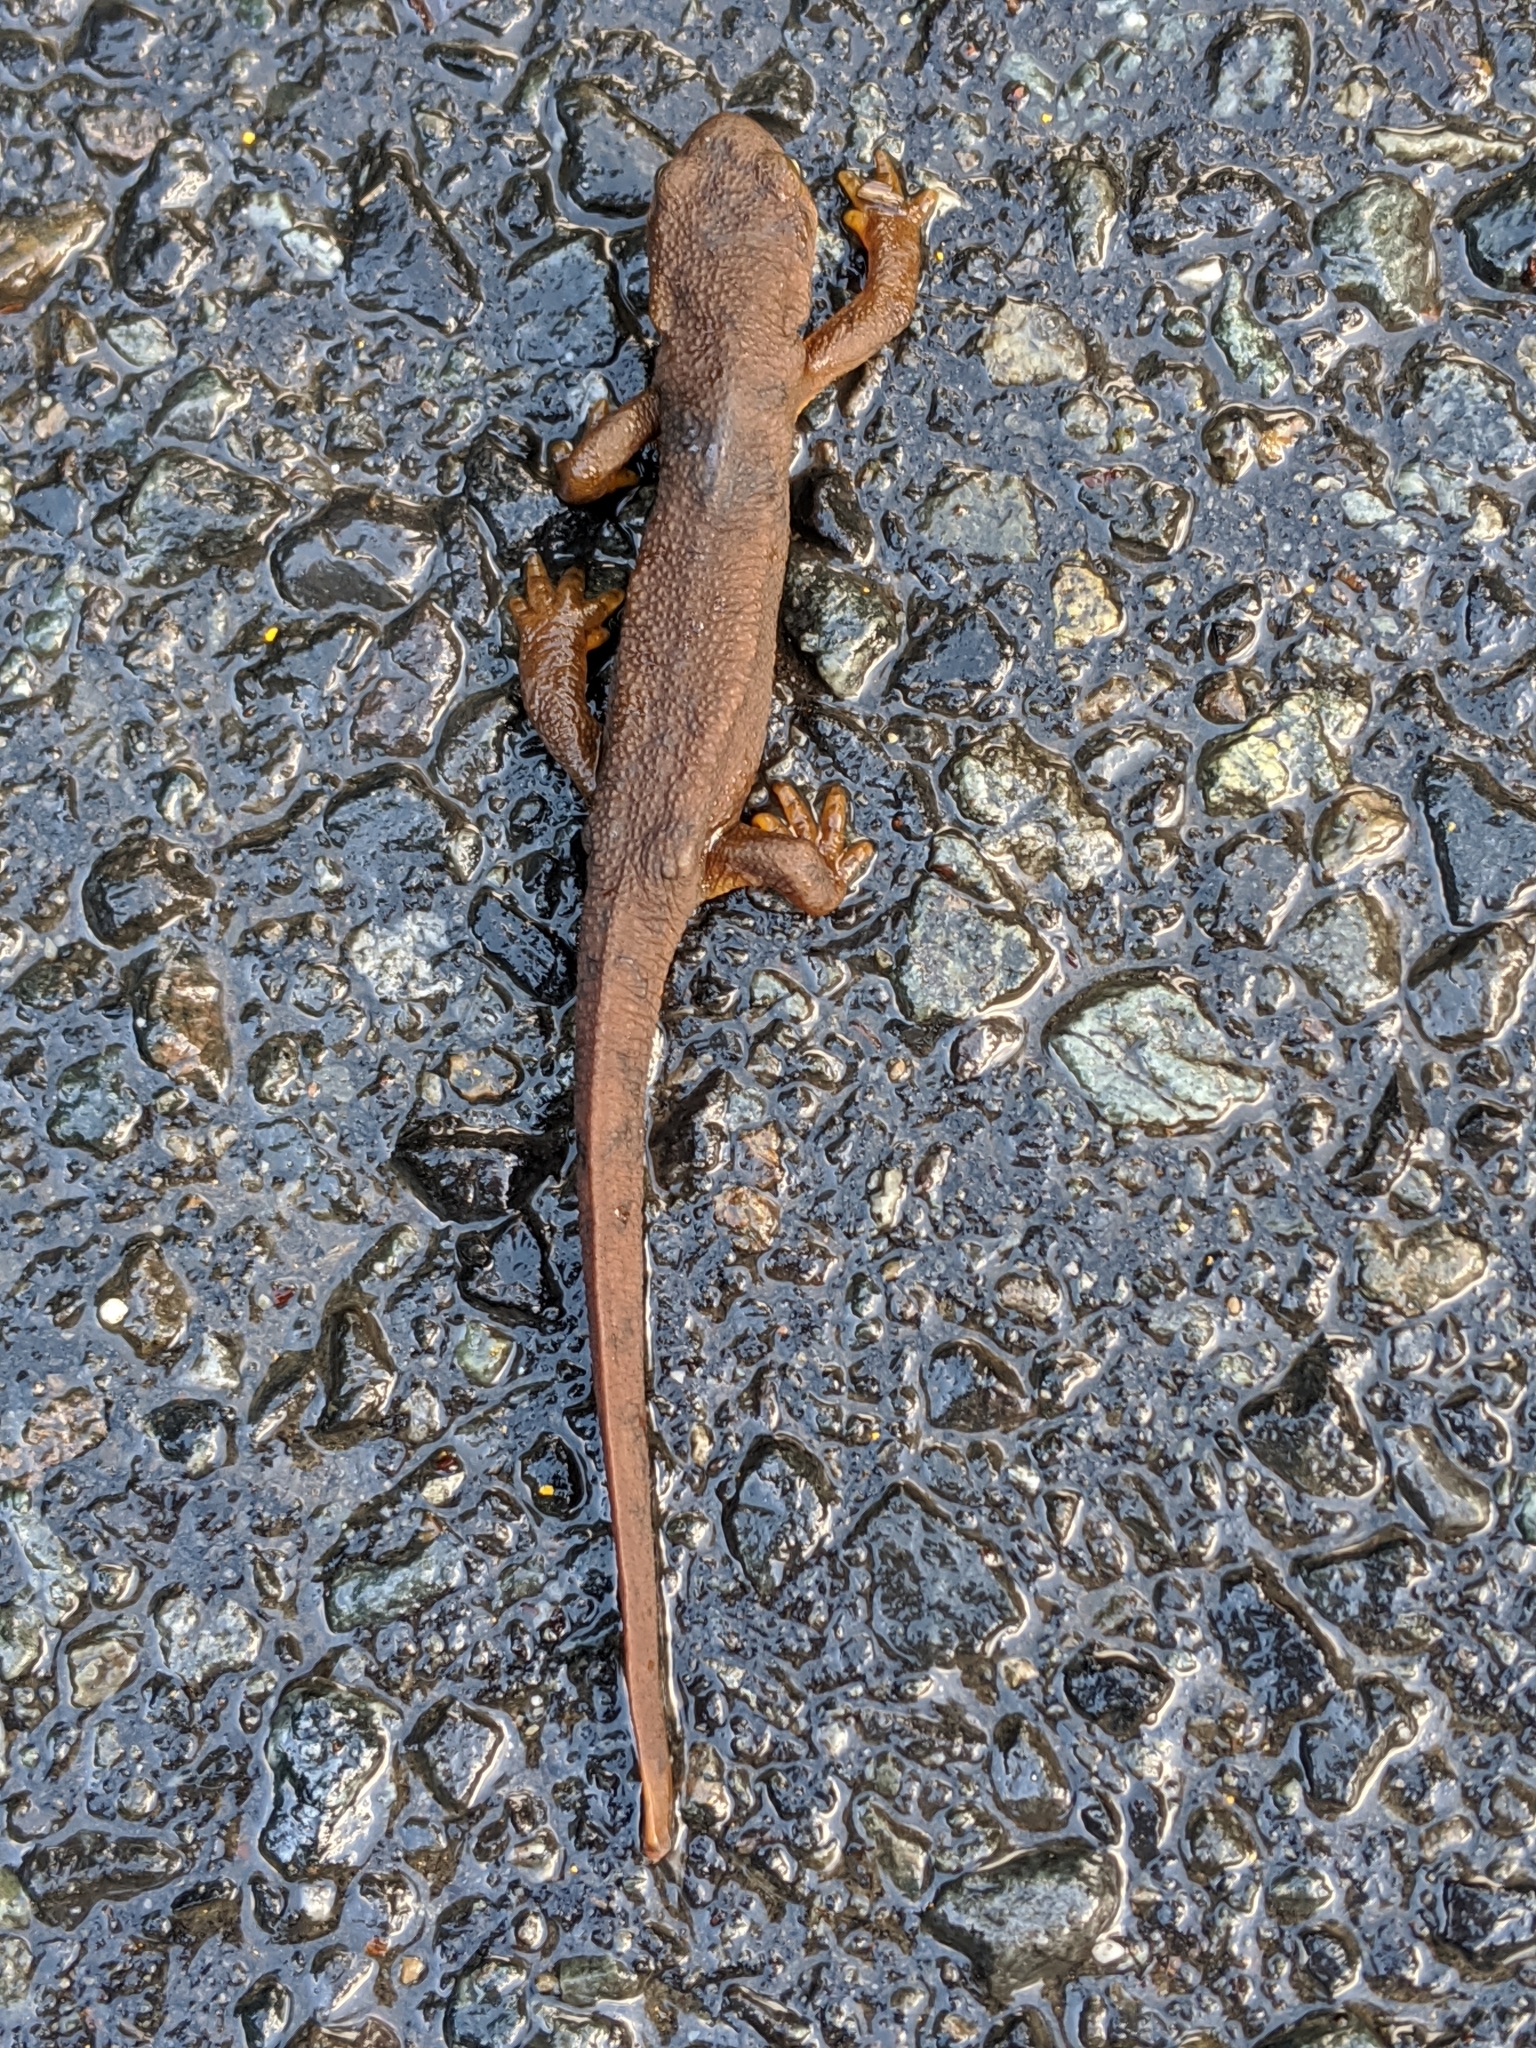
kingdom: Animalia
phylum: Chordata
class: Amphibia
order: Caudata
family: Salamandridae
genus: Taricha
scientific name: Taricha granulosa
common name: Roughskin newt
